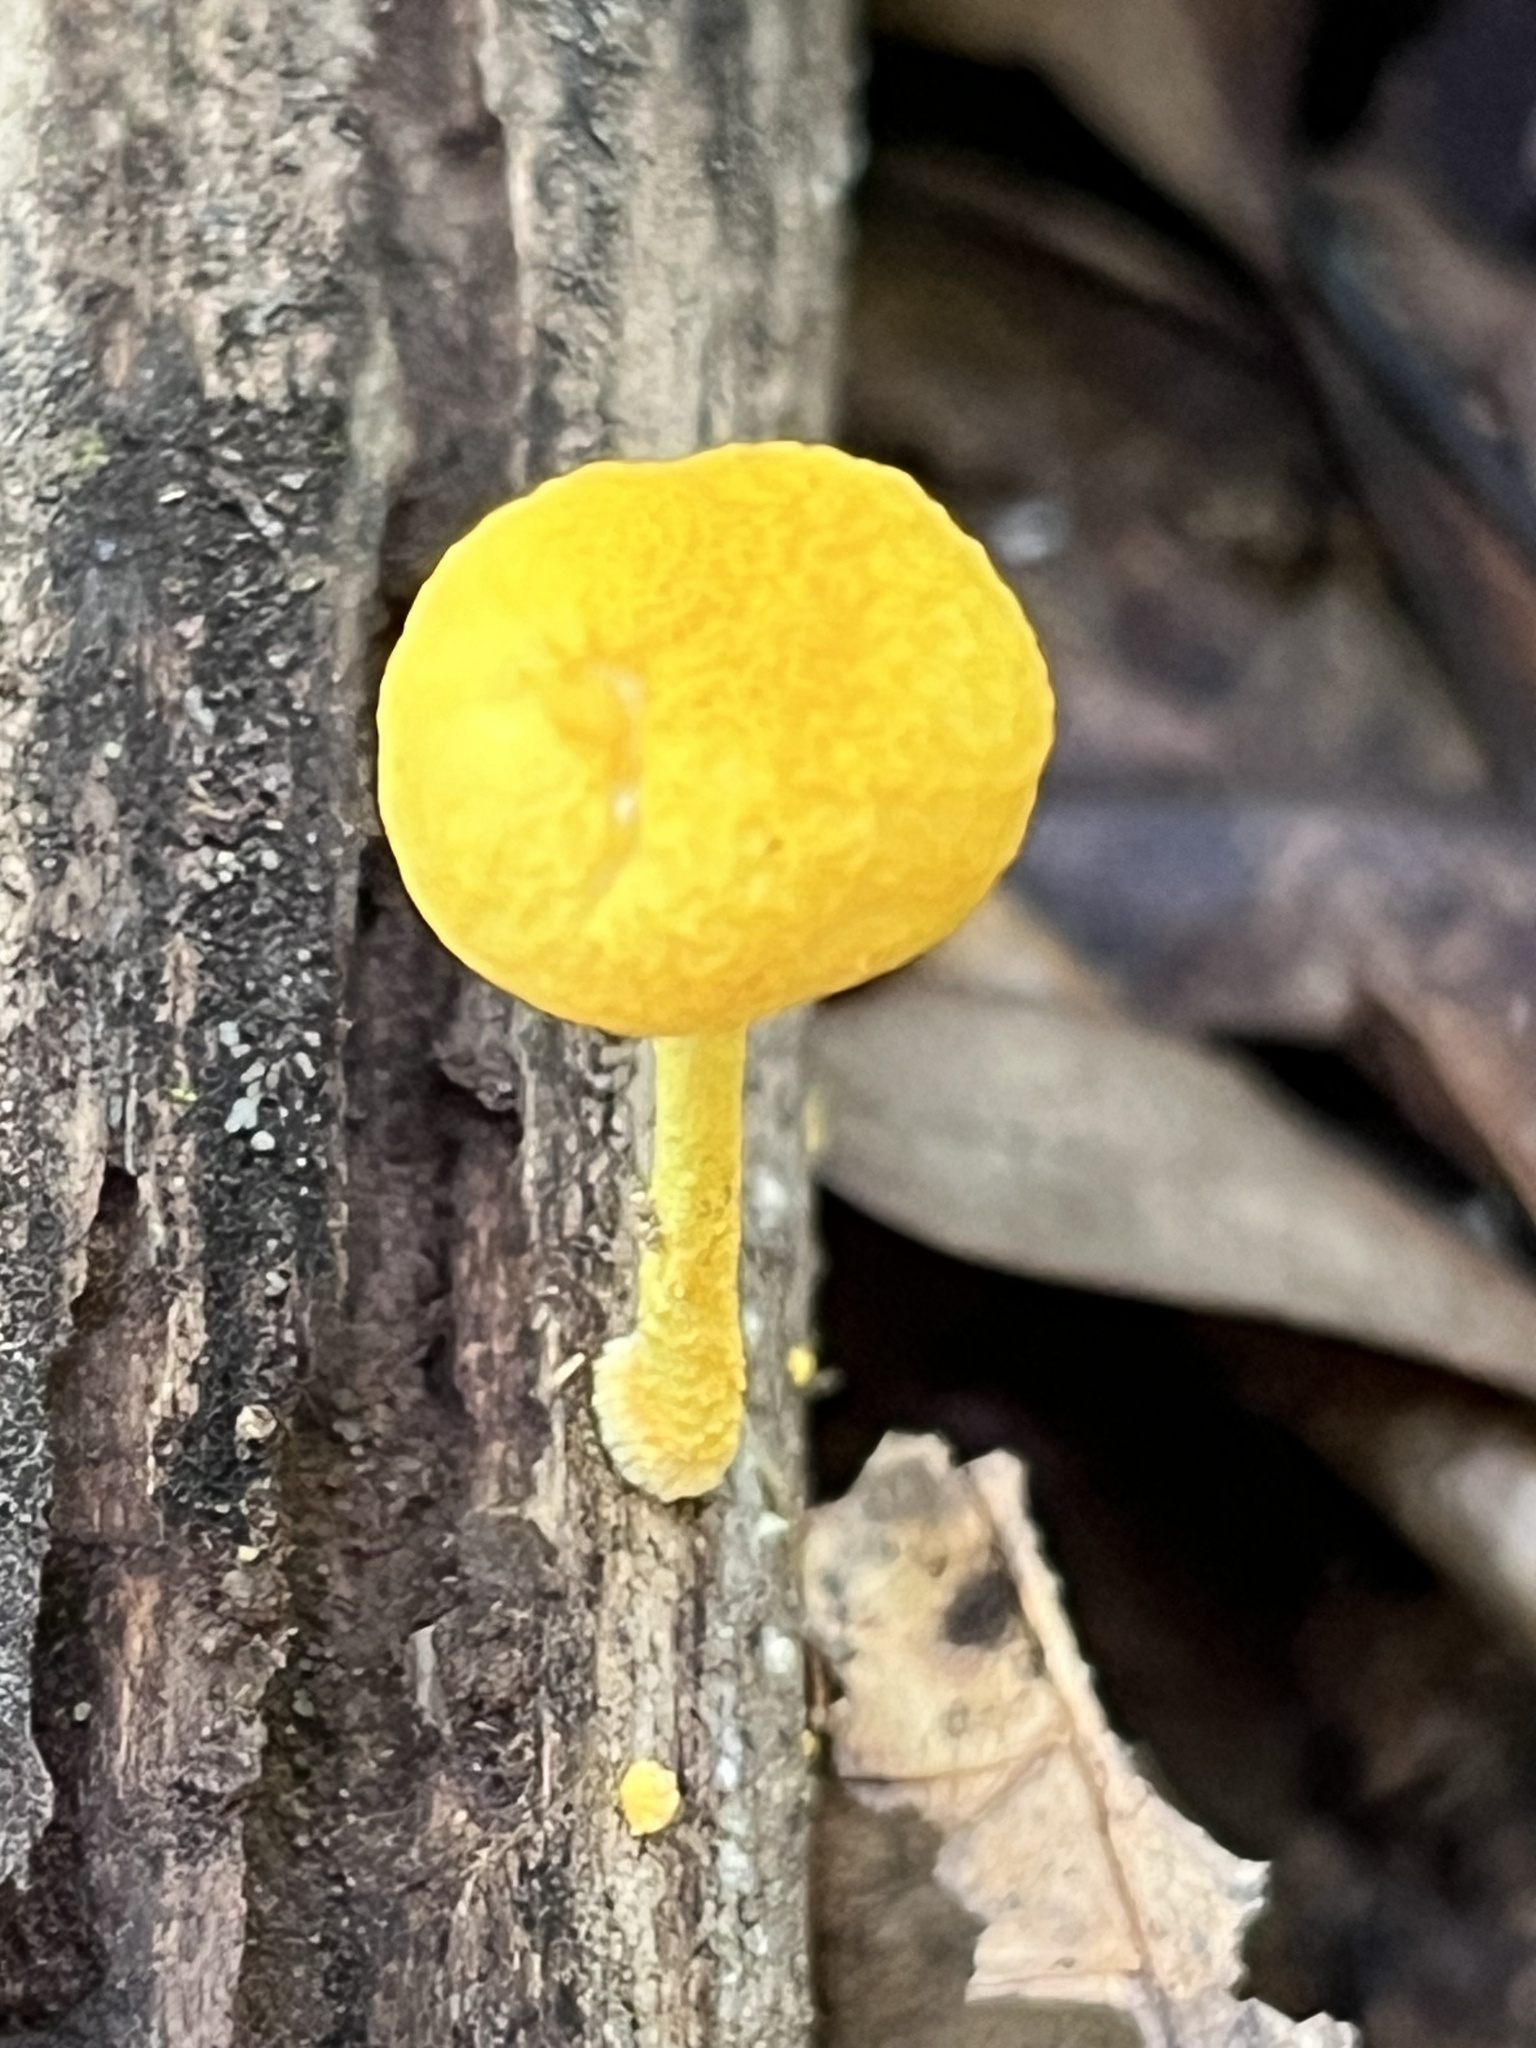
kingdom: Fungi
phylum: Basidiomycota
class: Agaricomycetes
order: Agaricales
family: Physalacriaceae
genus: Cyptotrama
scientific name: Cyptotrama chrysopepla
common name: Golden coincap
